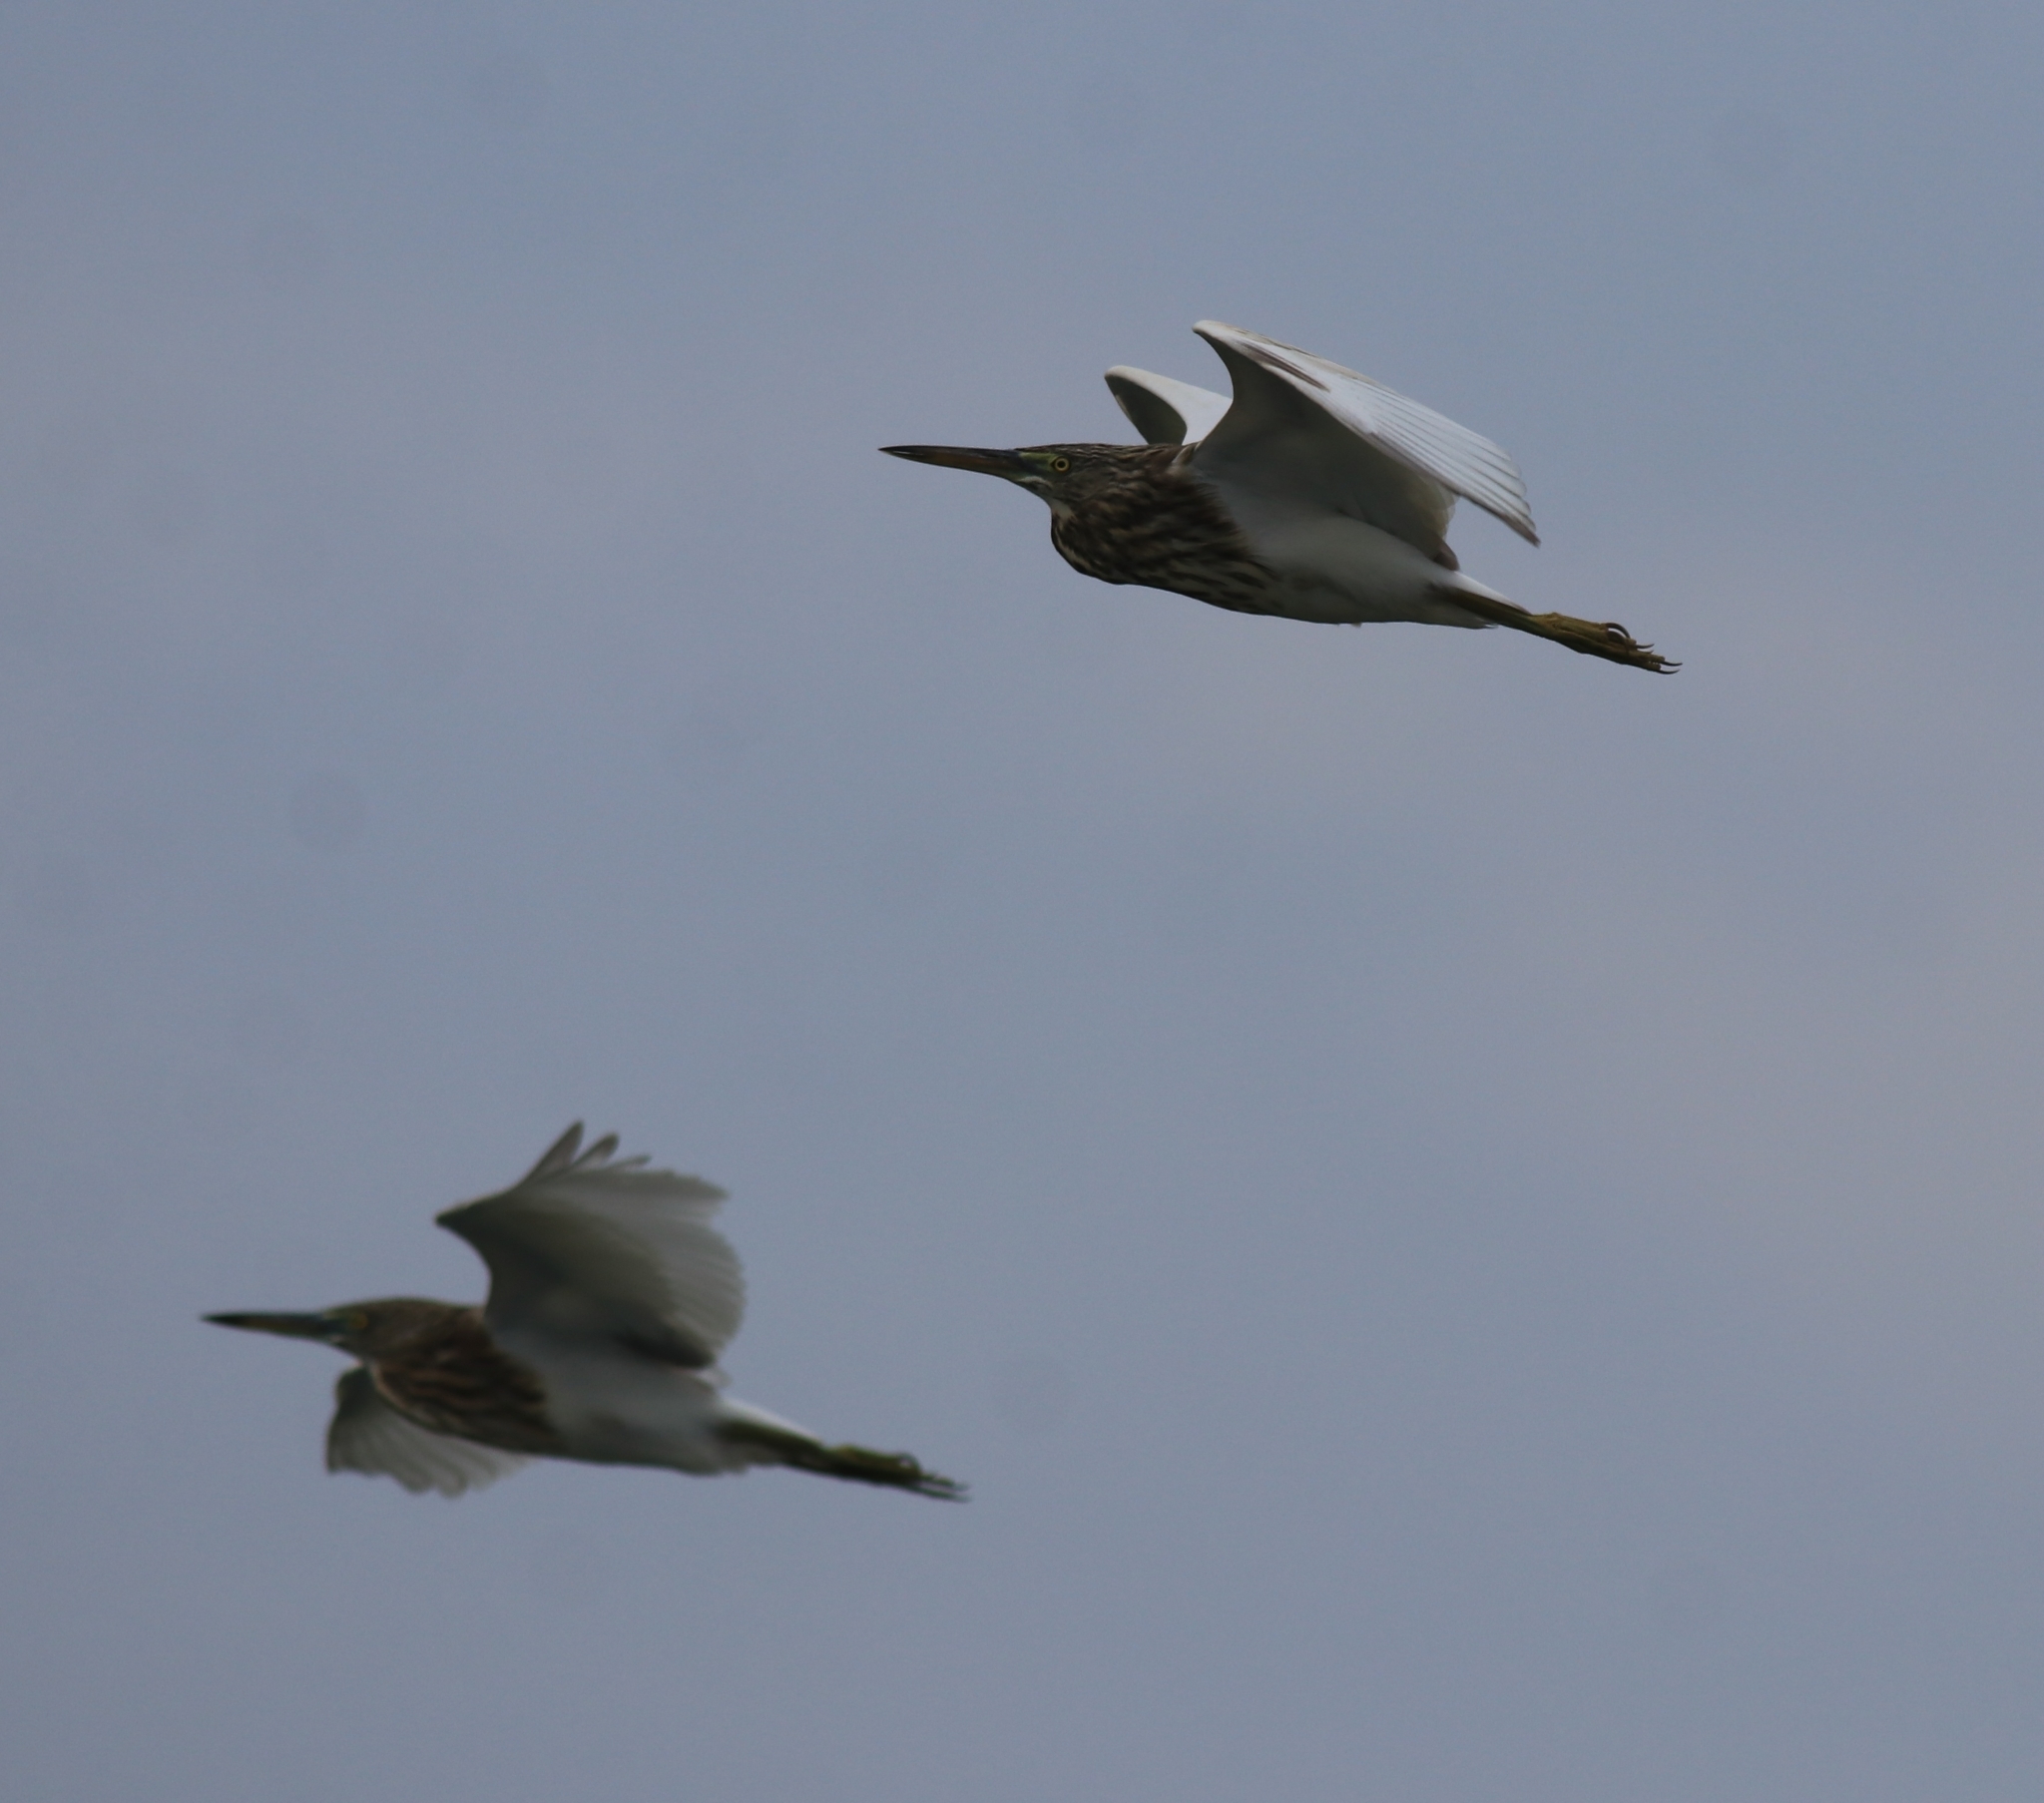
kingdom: Animalia
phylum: Chordata
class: Aves
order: Pelecaniformes
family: Ardeidae
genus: Ardeola
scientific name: Ardeola grayii
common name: Indian pond heron
